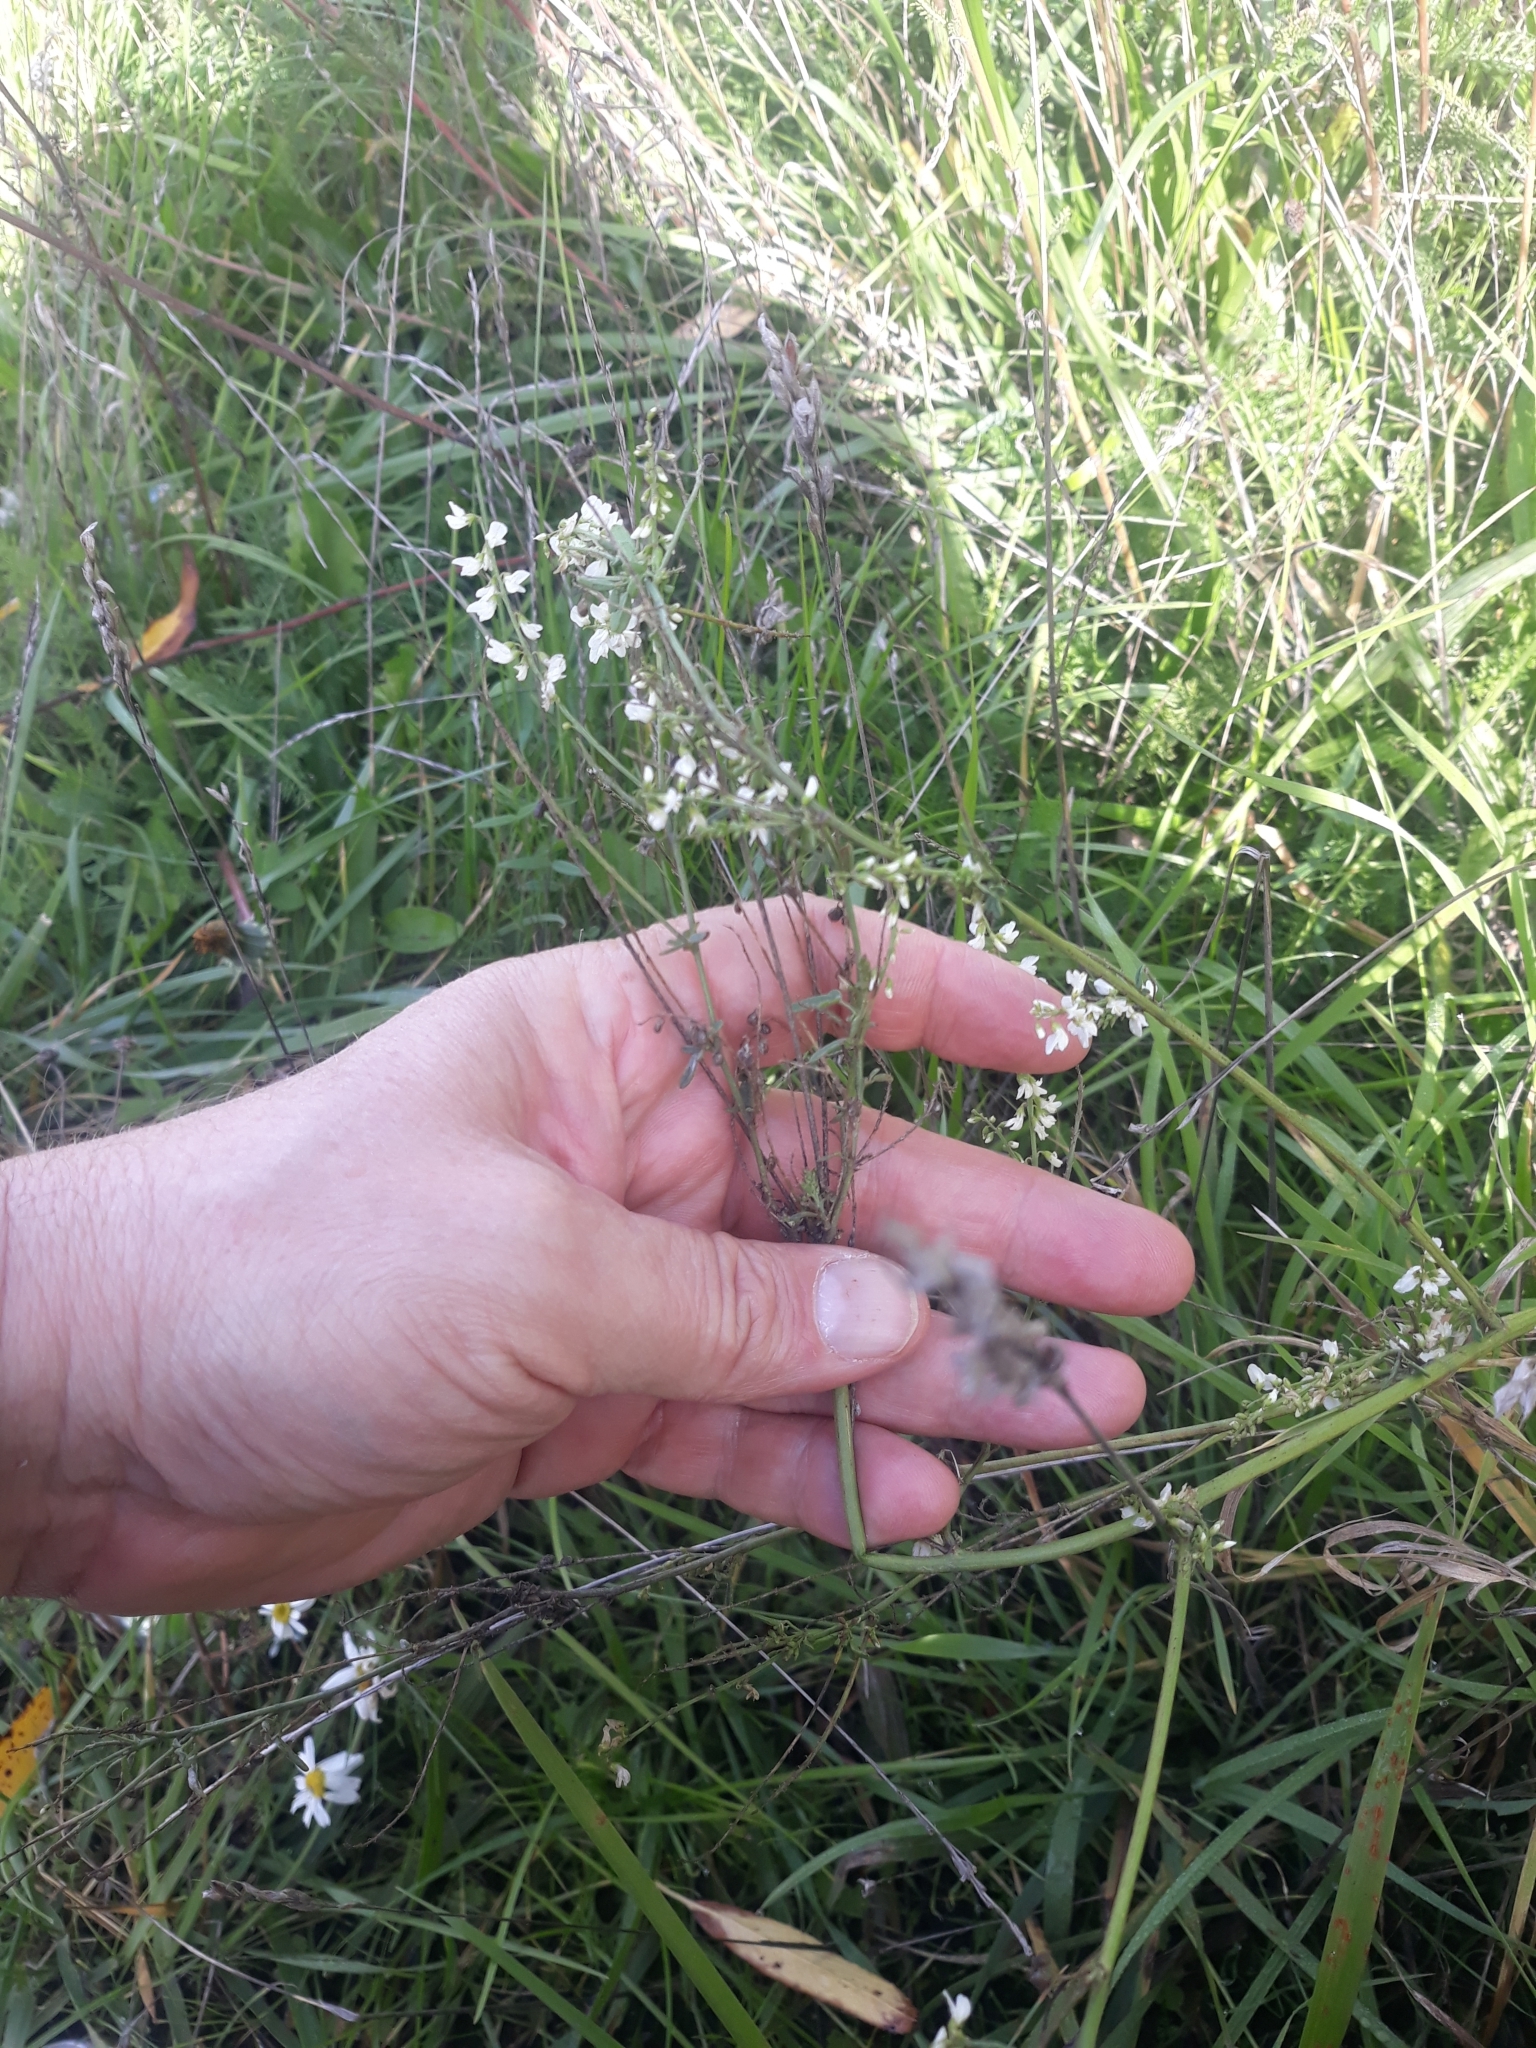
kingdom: Plantae
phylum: Tracheophyta
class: Magnoliopsida
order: Fabales
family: Fabaceae
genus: Melilotus
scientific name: Melilotus albus
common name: White melilot
